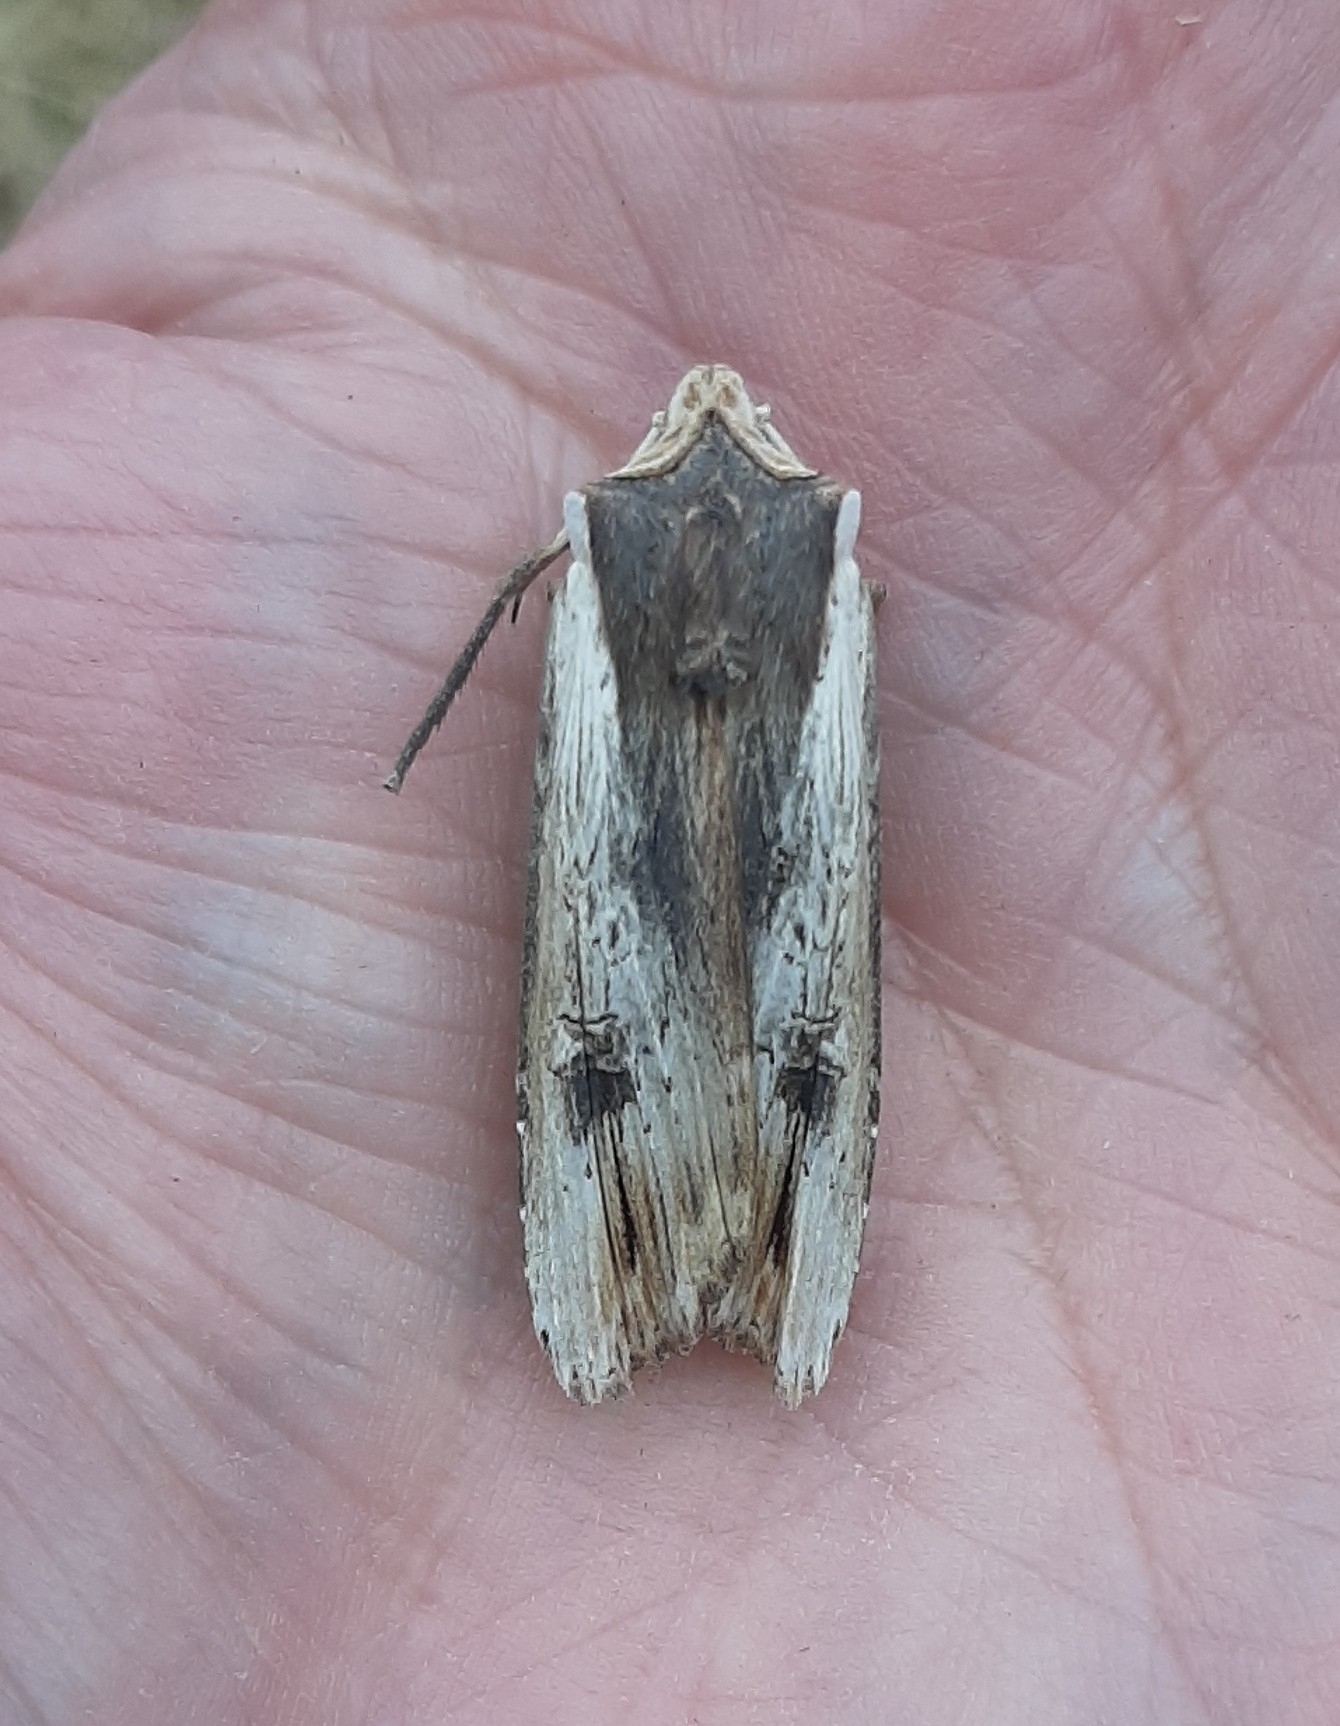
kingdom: Animalia
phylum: Arthropoda
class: Insecta
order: Lepidoptera
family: Noctuidae
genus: Xylena
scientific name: Xylena vetusta
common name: Red sword-grass
